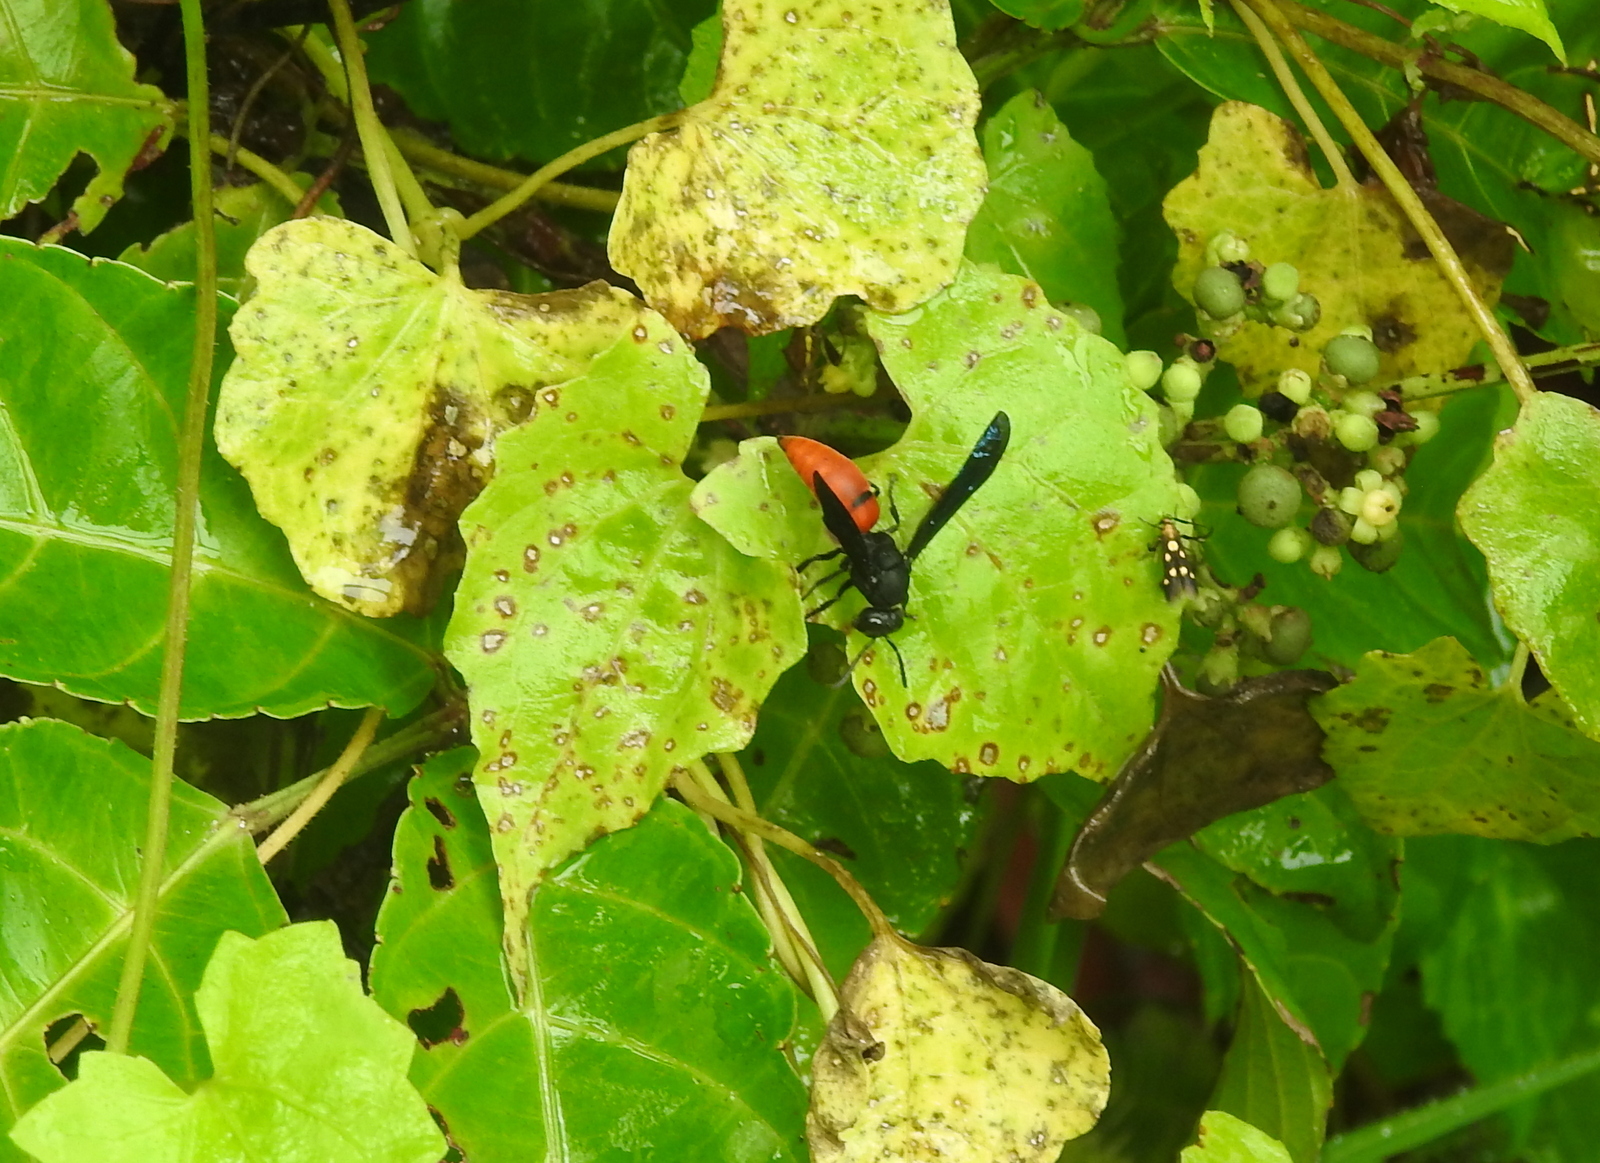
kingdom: Animalia
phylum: Arthropoda
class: Insecta
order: Hymenoptera
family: Eumenidae
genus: Anterhynchium
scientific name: Anterhynchium abdominale
